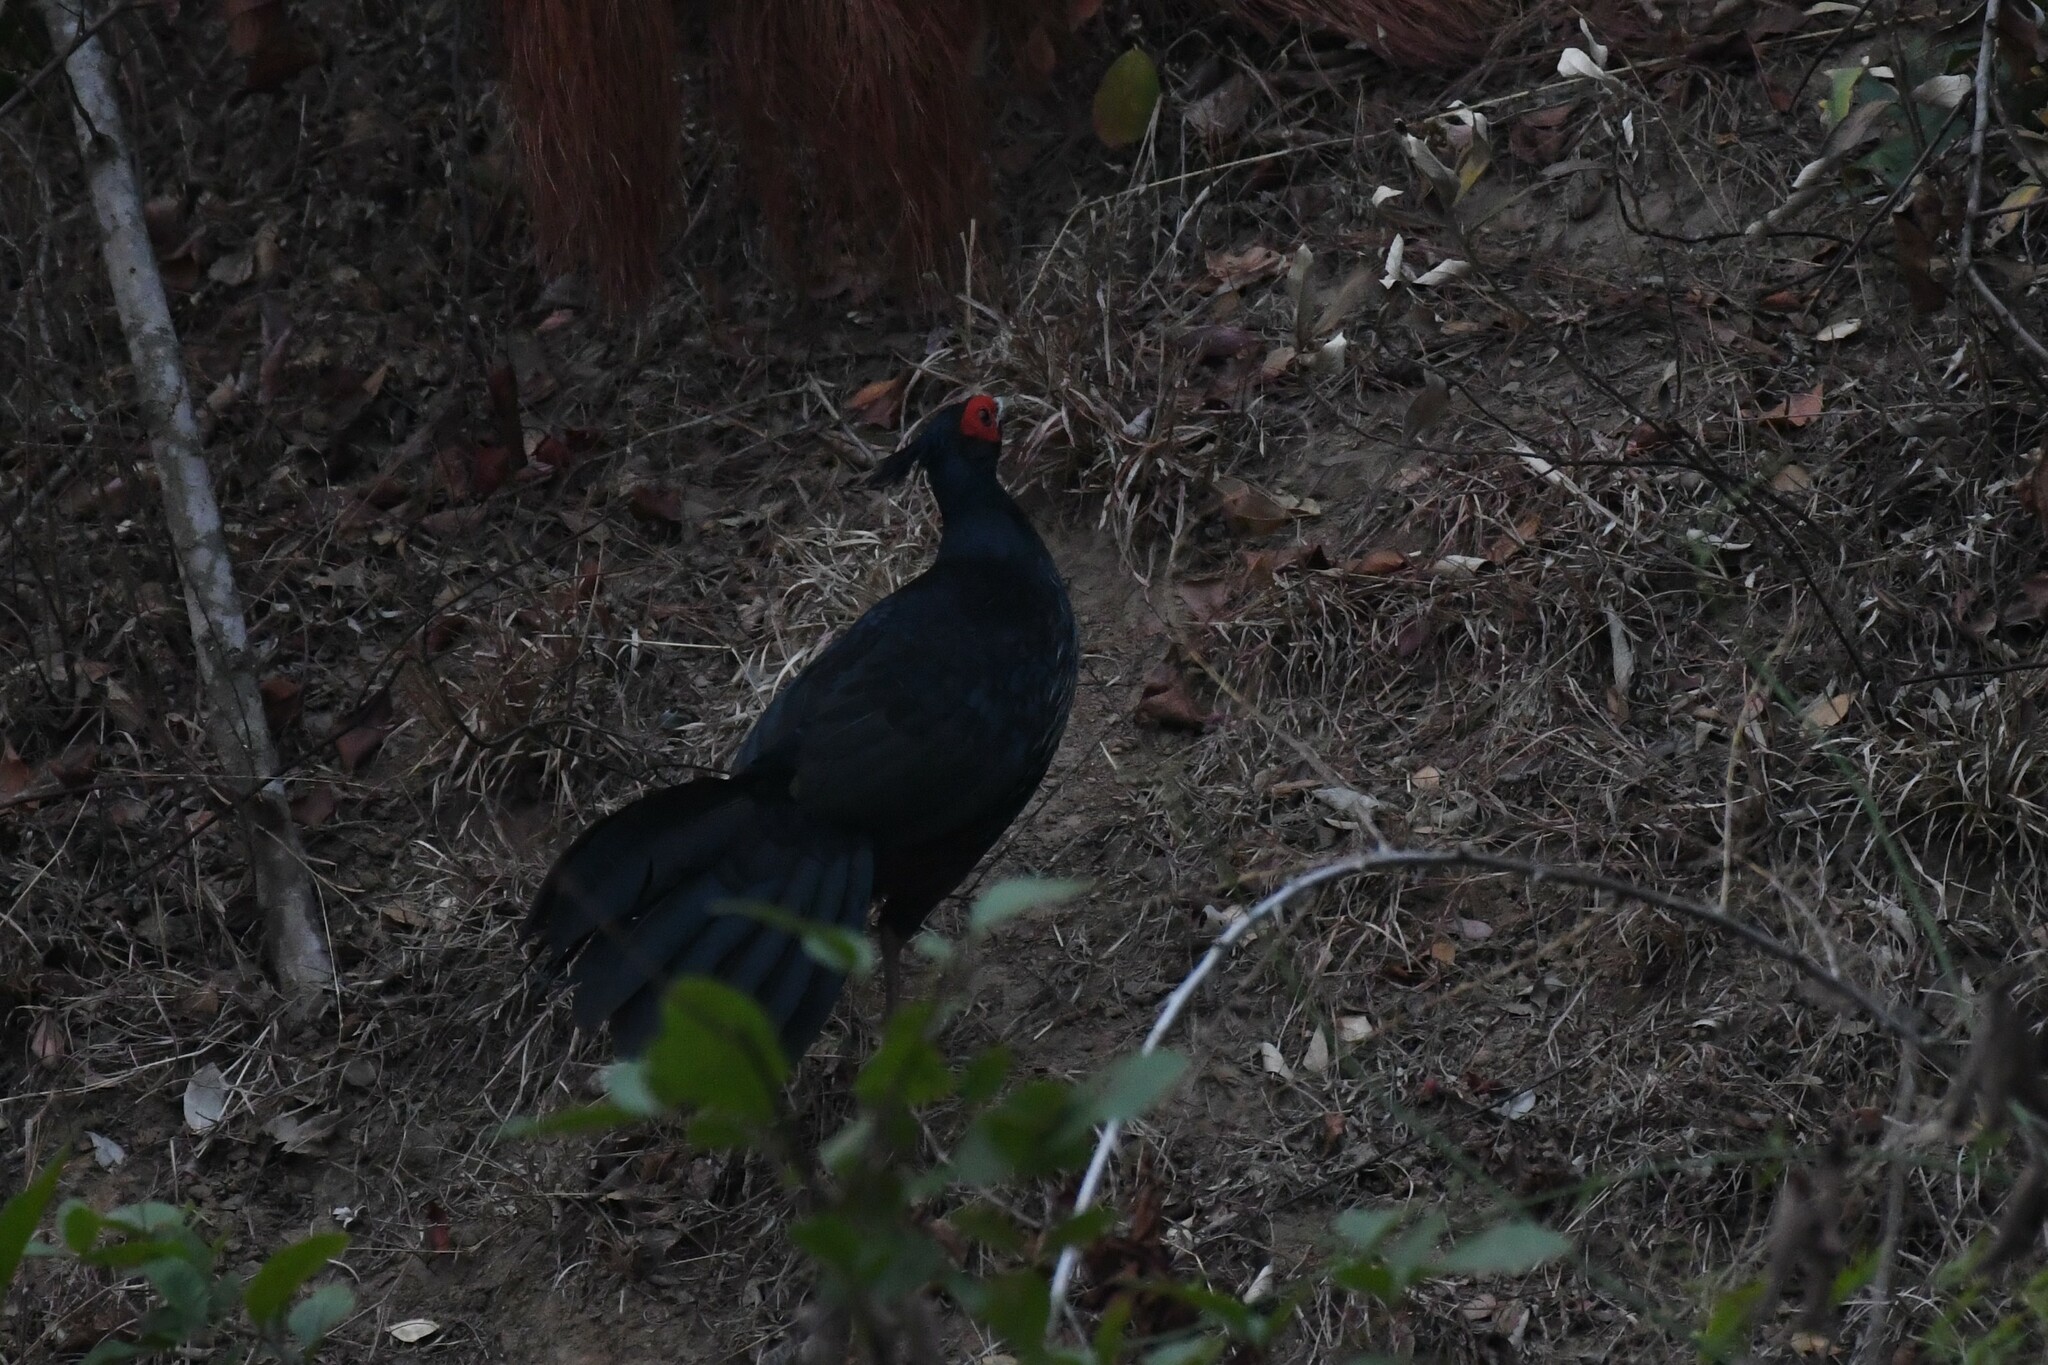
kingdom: Animalia
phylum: Chordata
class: Aves
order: Galliformes
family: Phasianidae
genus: Lophura
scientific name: Lophura leucomelanos
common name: Kalij pheasant
